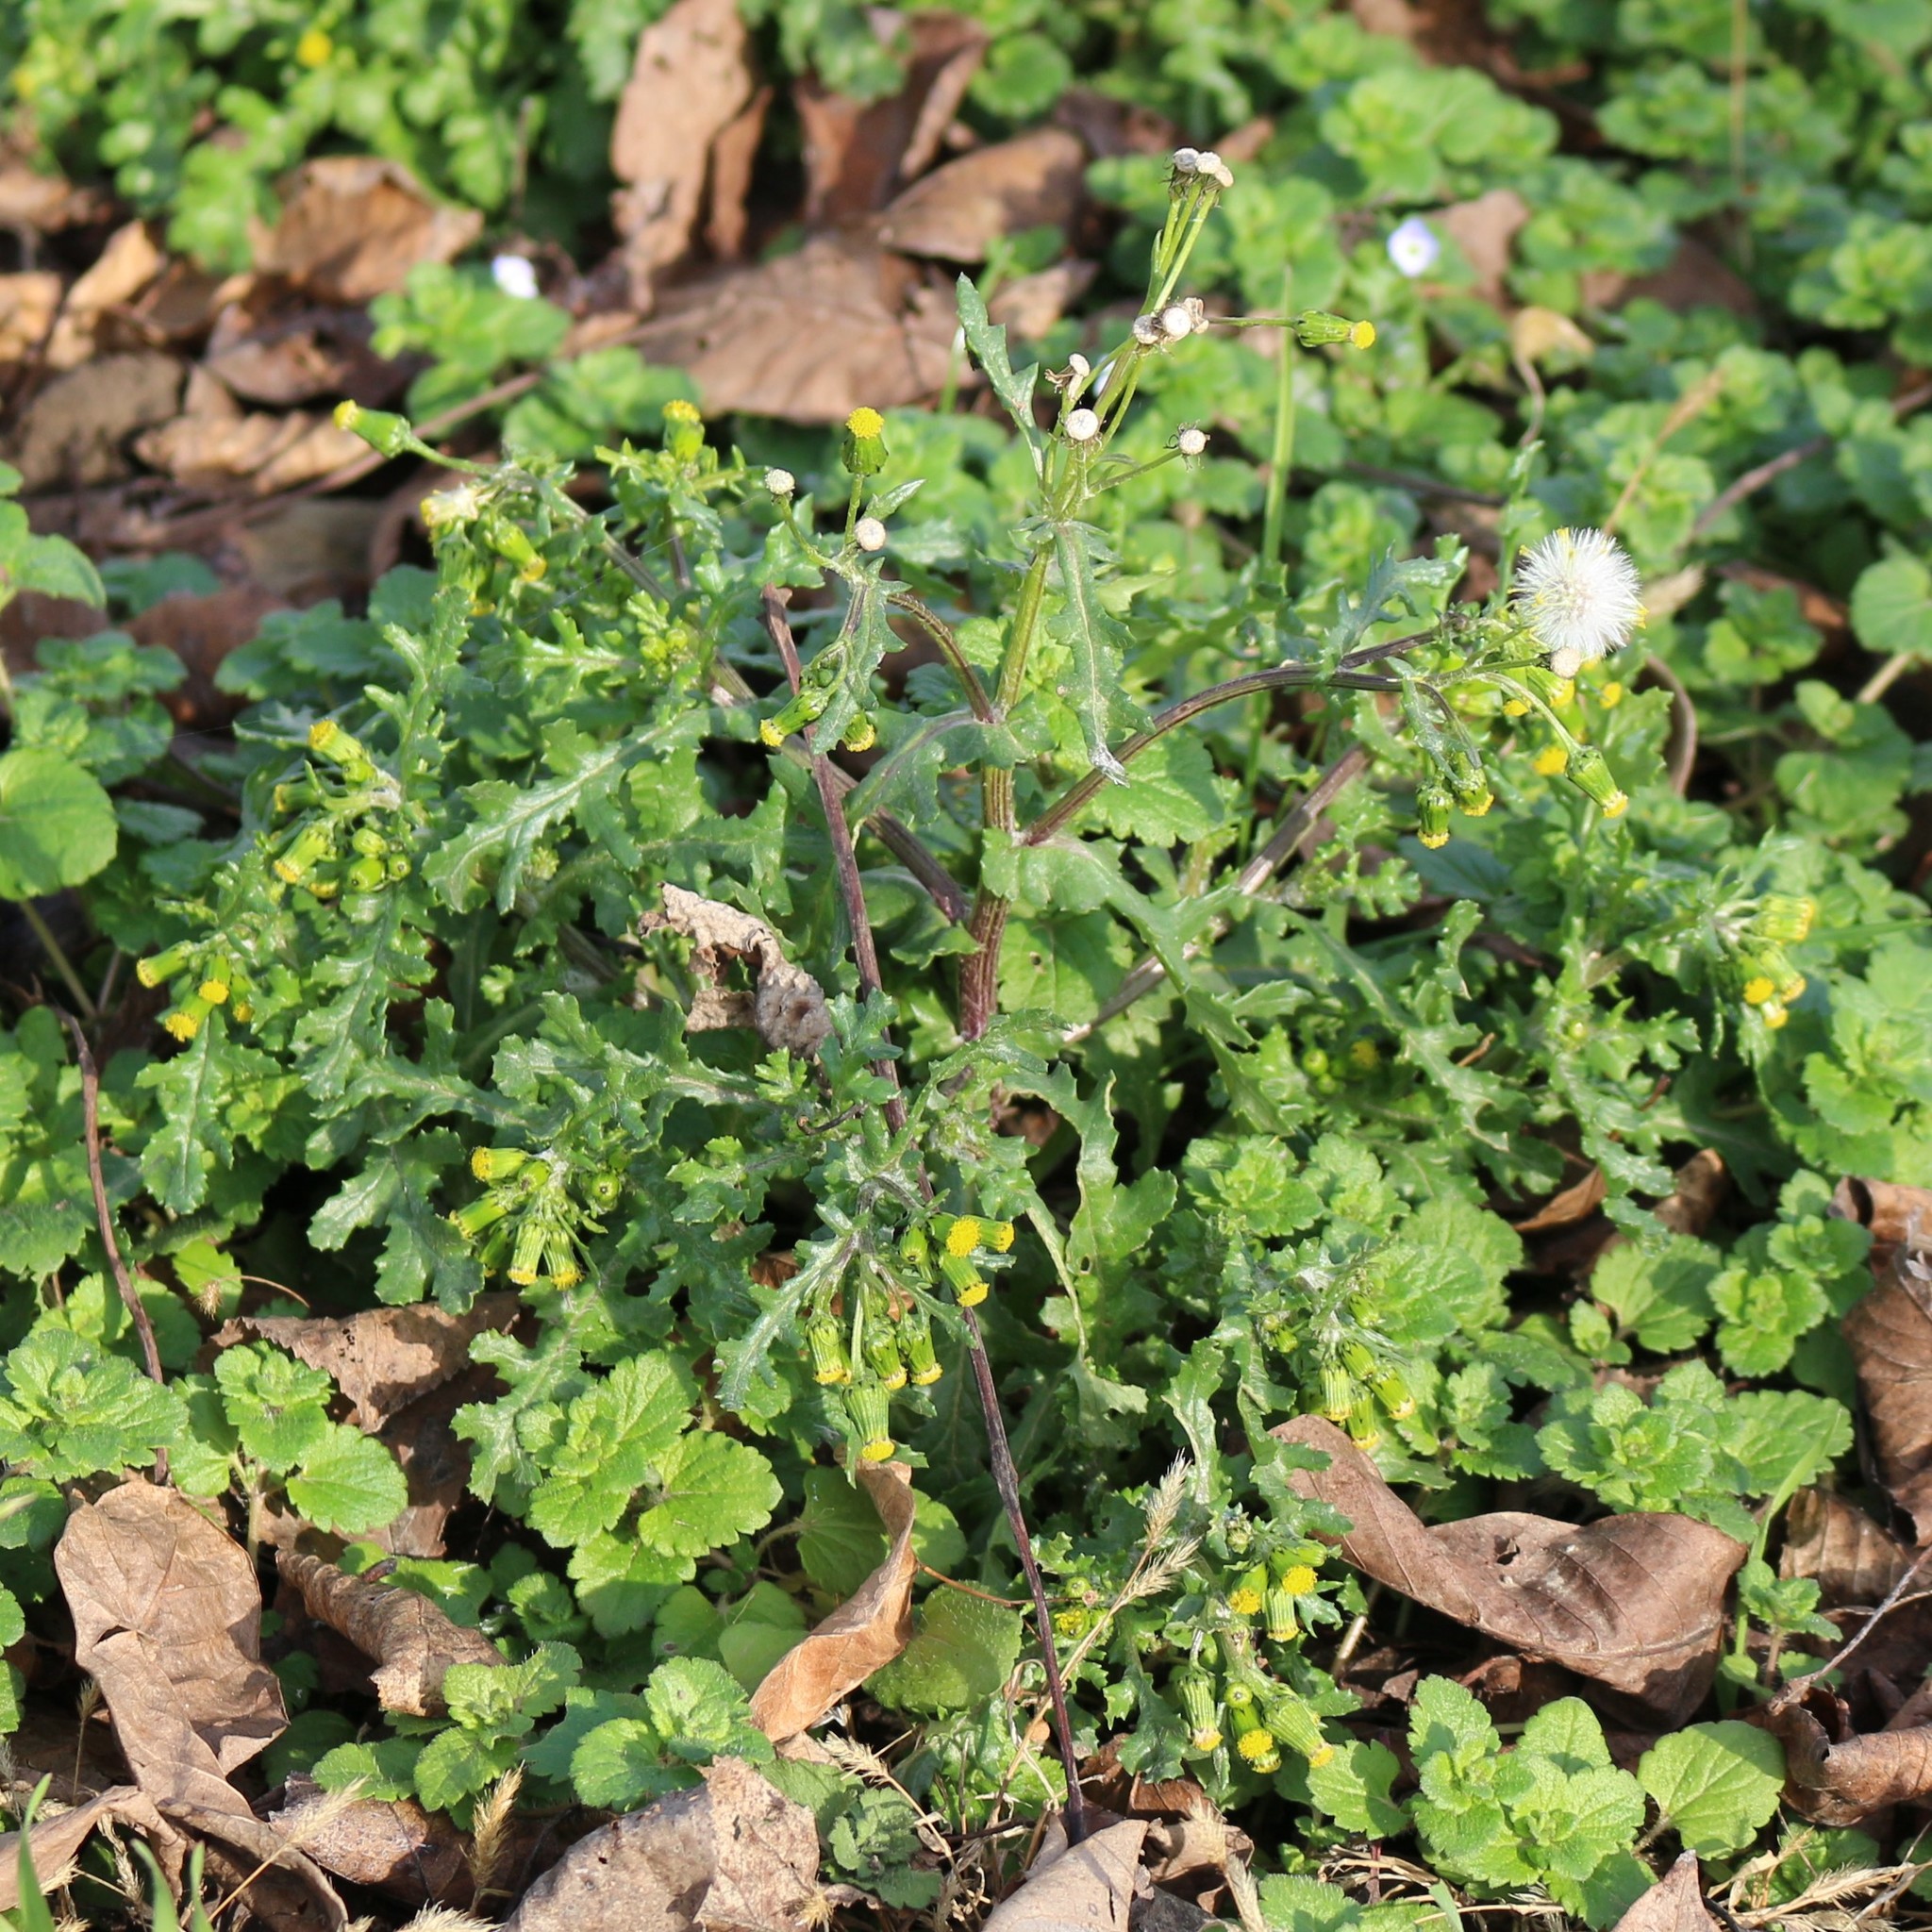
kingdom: Plantae
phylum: Tracheophyta
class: Magnoliopsida
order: Asterales
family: Asteraceae
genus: Senecio
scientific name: Senecio vulgaris
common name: Old-man-in-the-spring
